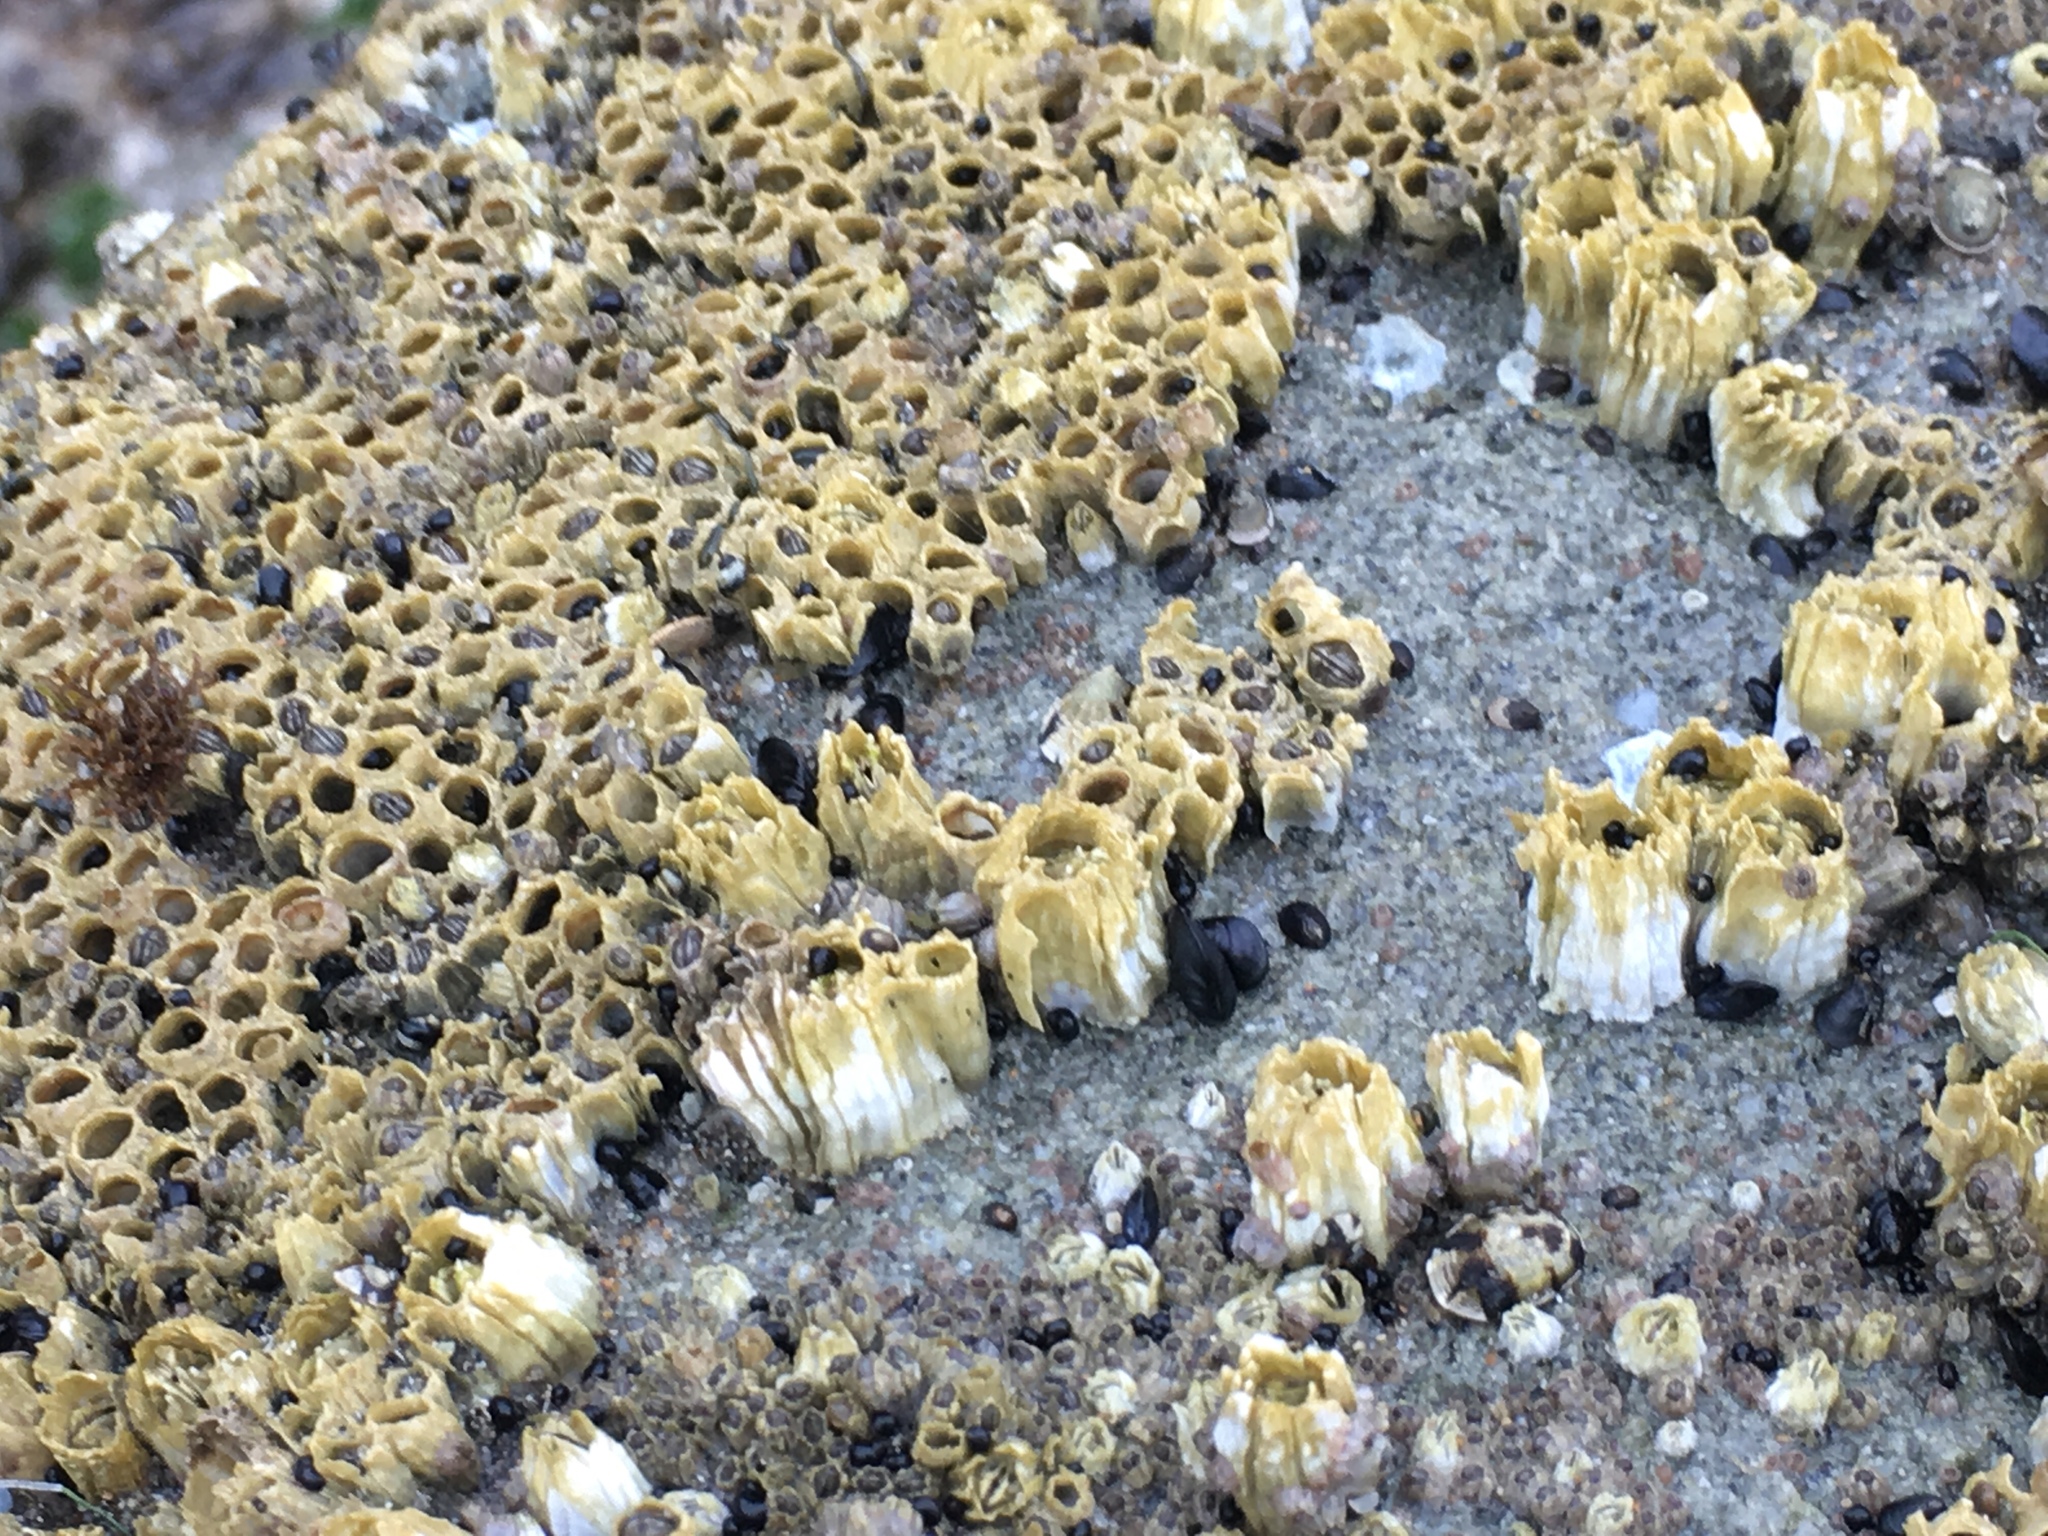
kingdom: Animalia
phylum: Arthropoda
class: Maxillopoda
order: Sessilia
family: Balanidae
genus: Balanus
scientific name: Balanus glandula
